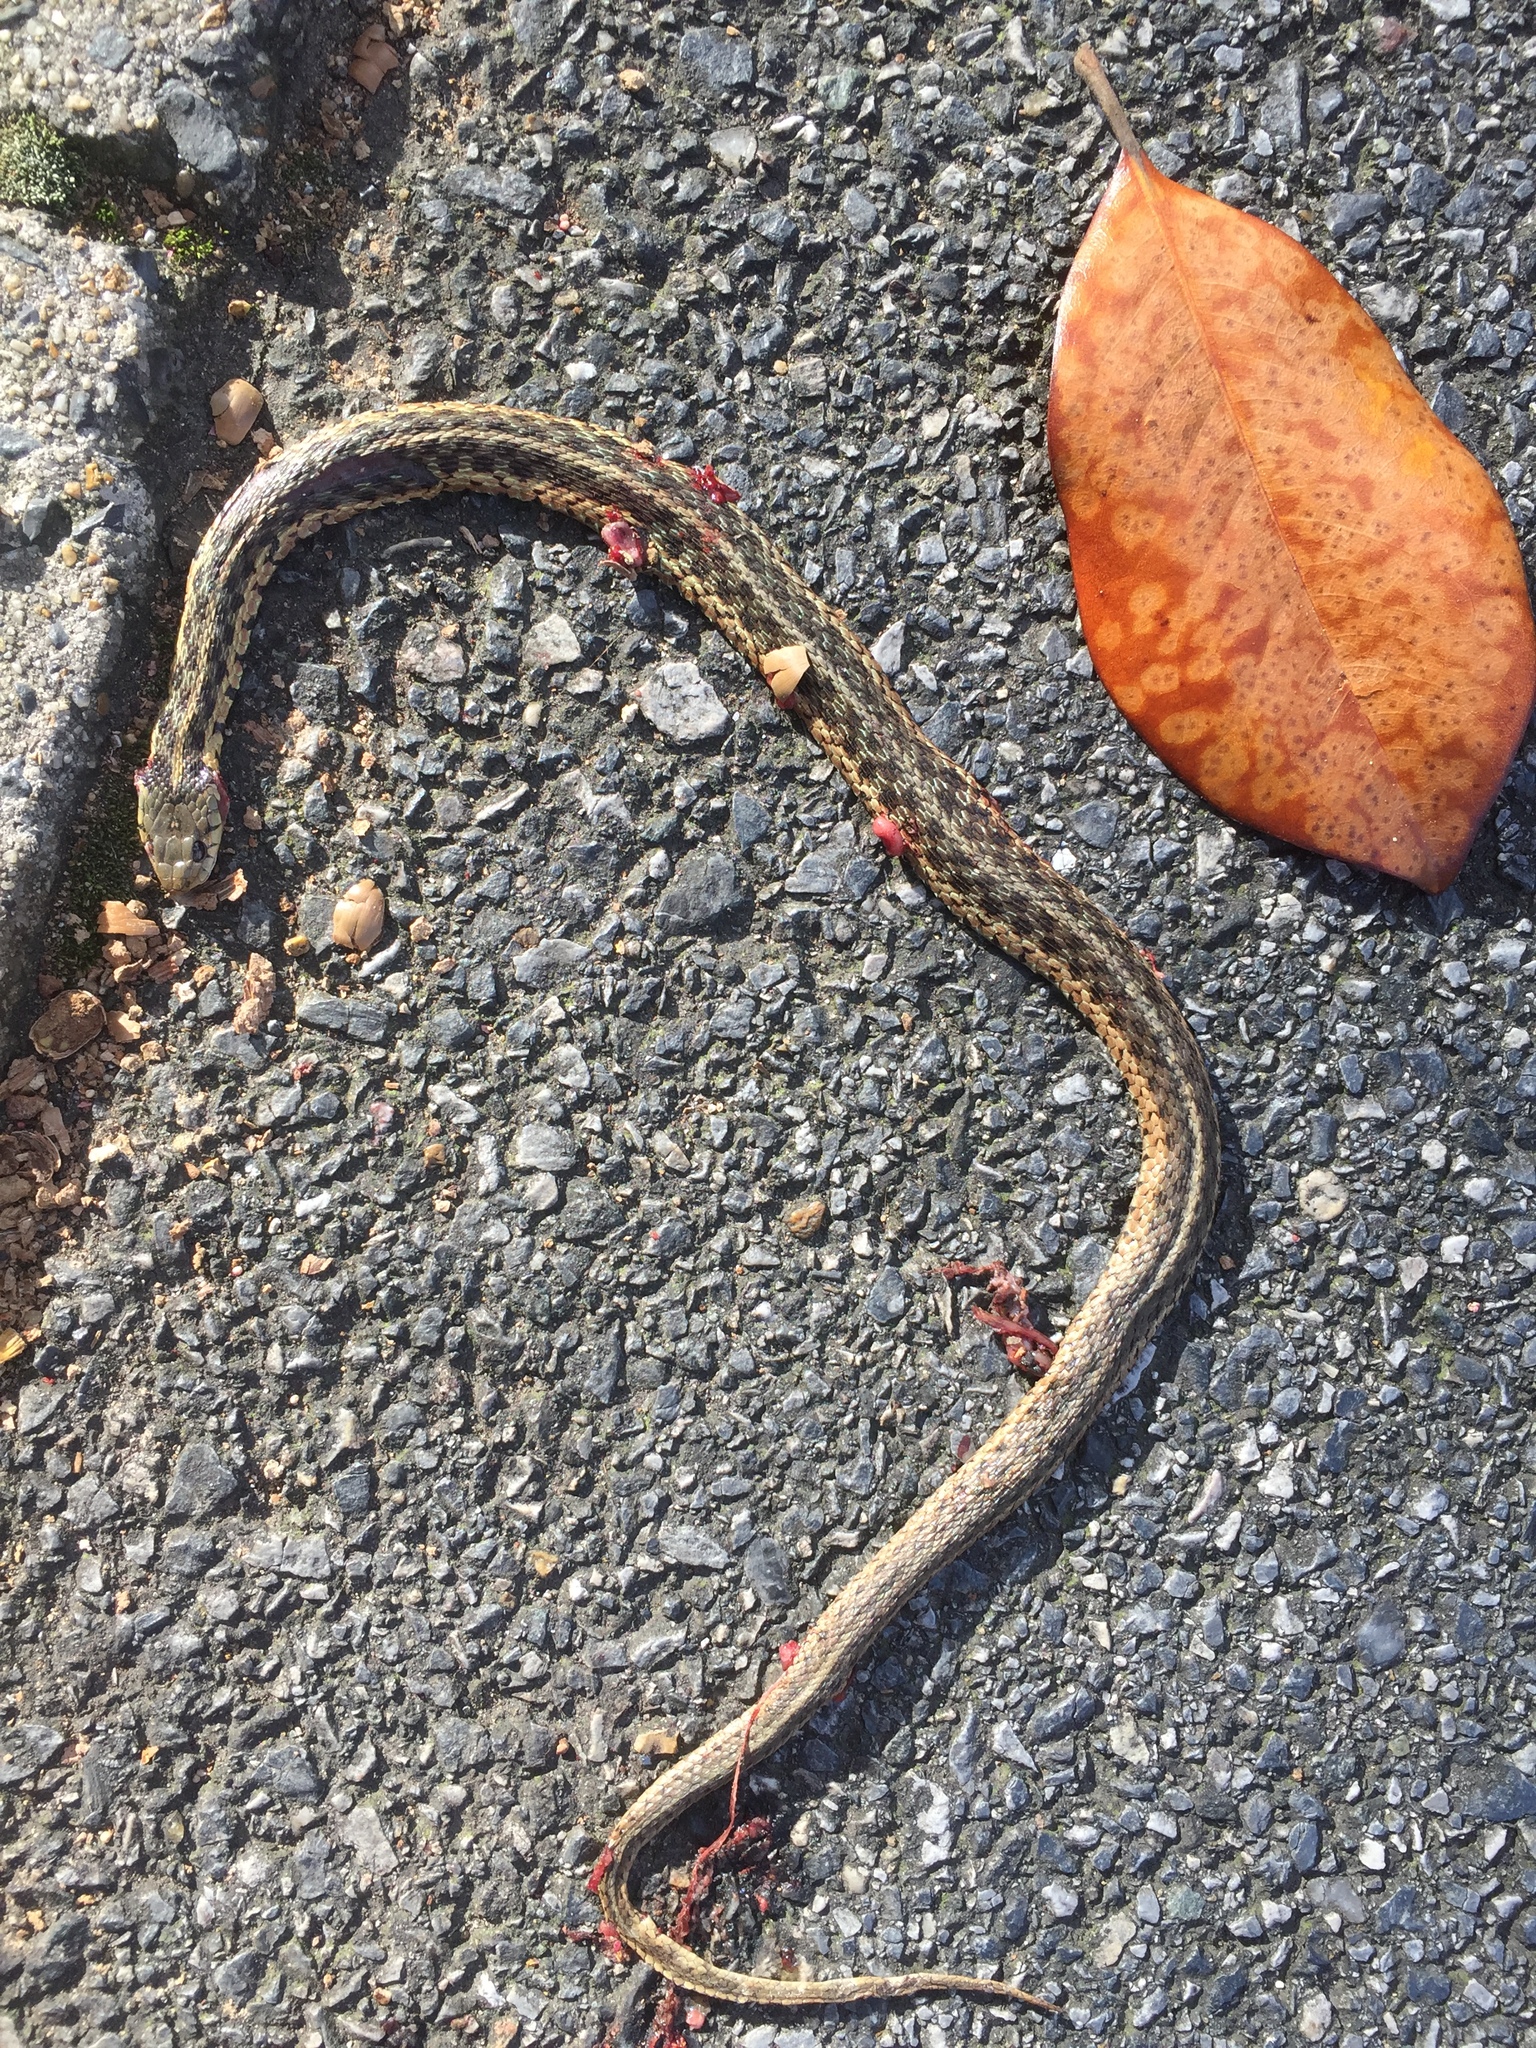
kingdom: Animalia
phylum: Chordata
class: Squamata
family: Colubridae
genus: Thamnophis
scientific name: Thamnophis sirtalis
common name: Common garter snake
